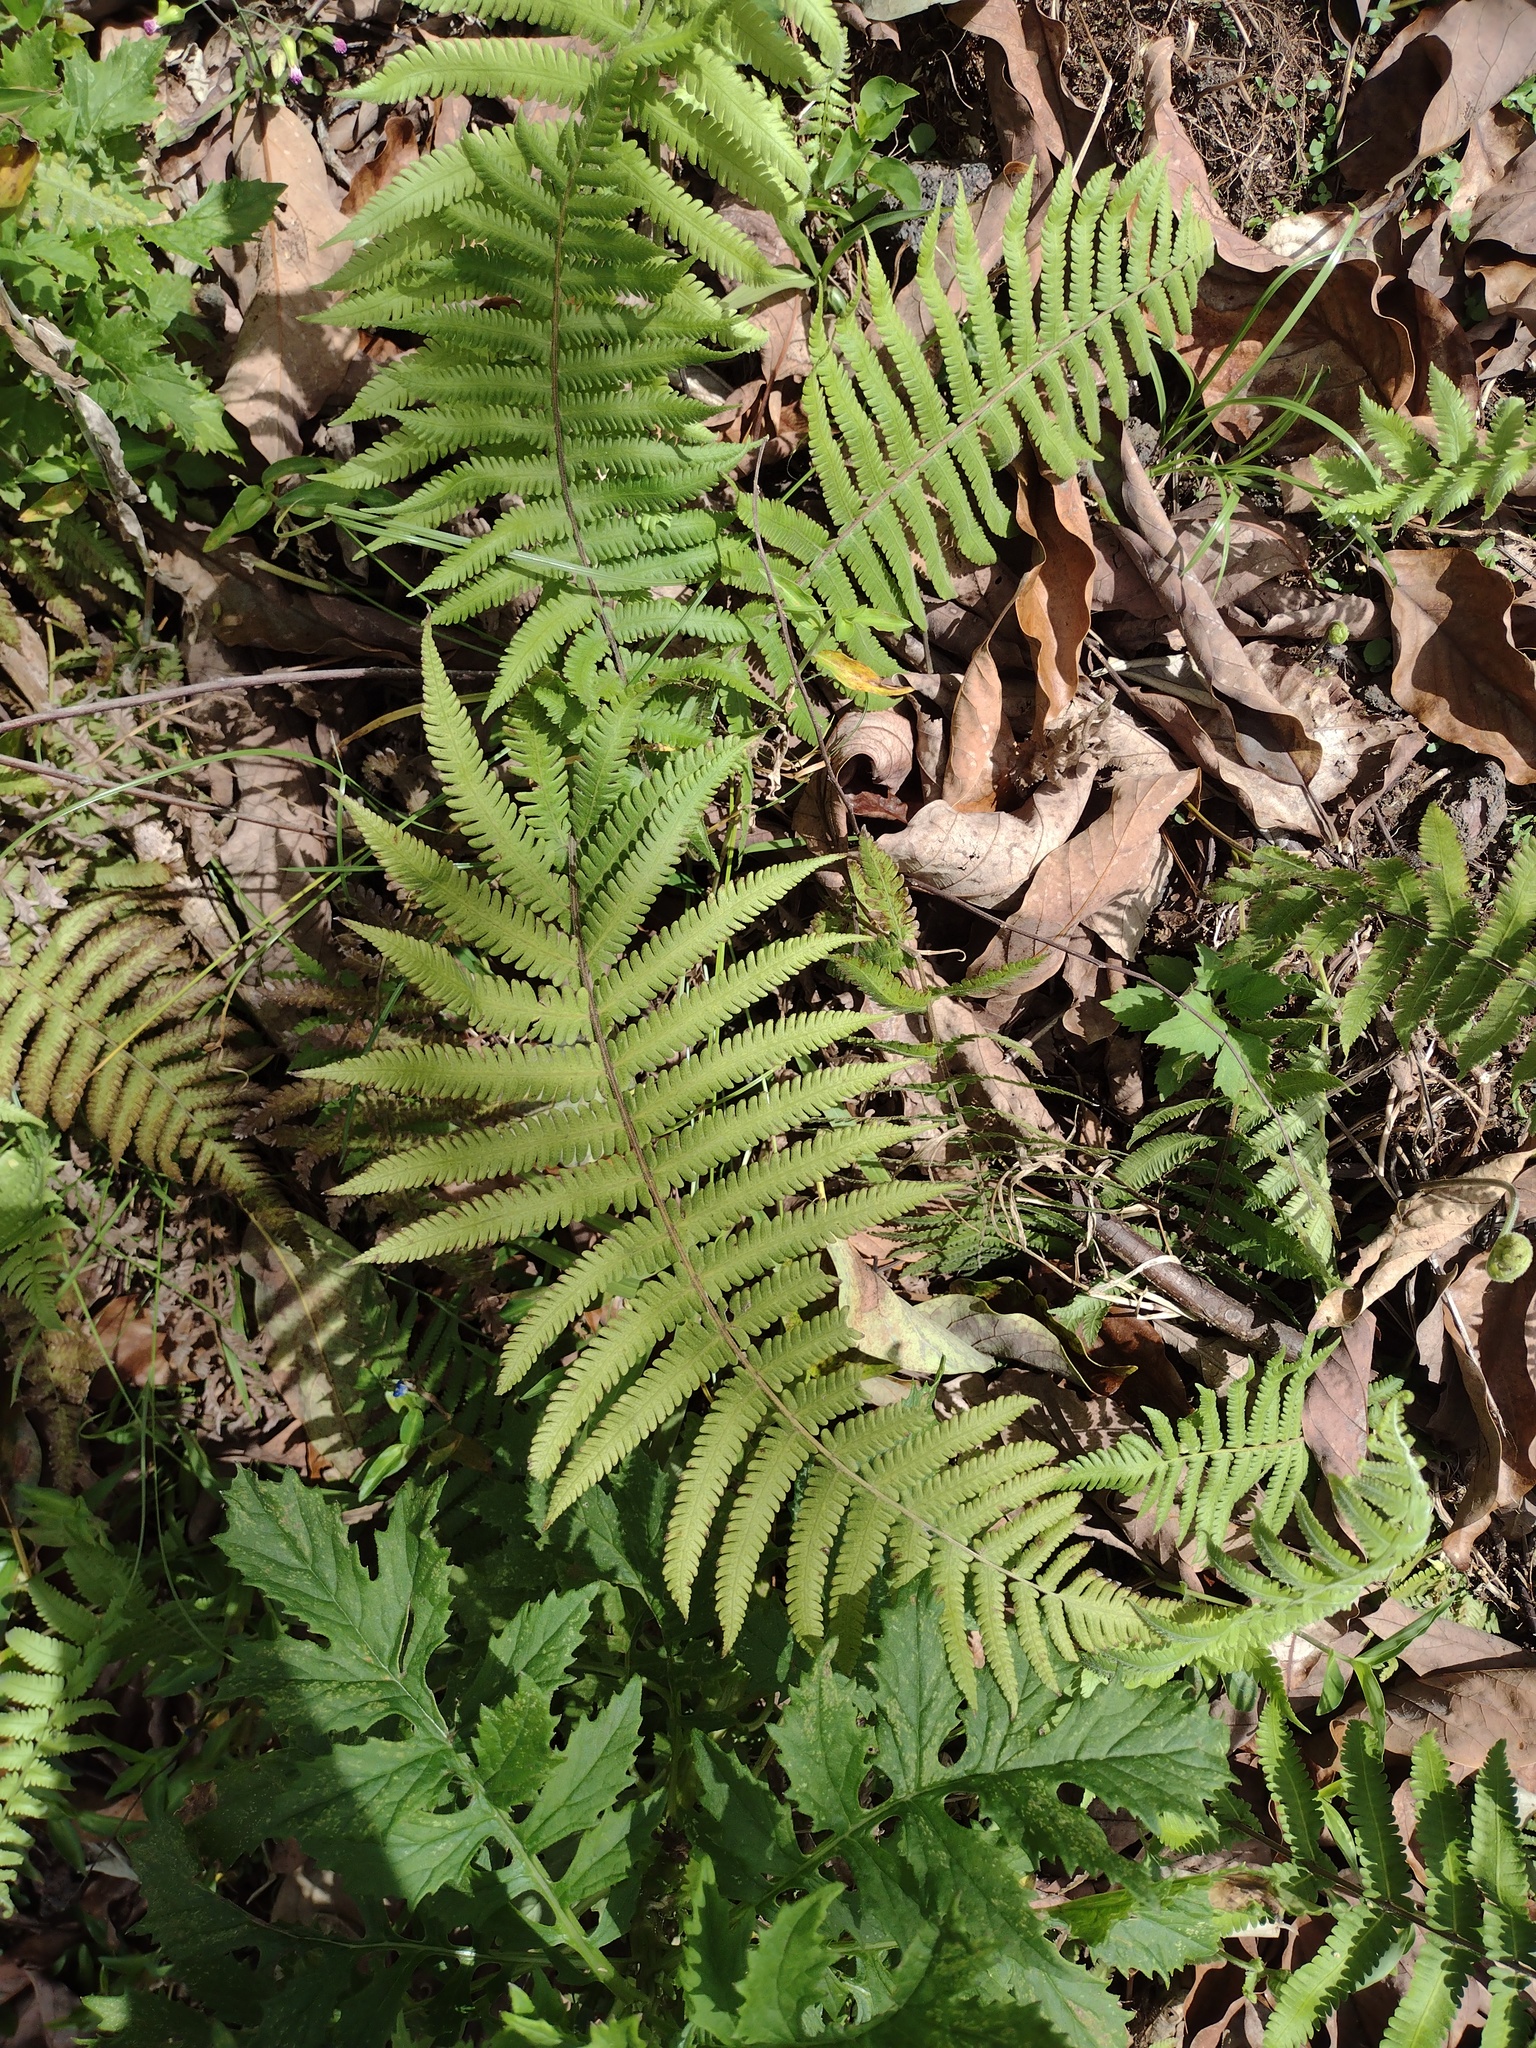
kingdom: Plantae
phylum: Tracheophyta
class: Polypodiopsida
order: Polypodiales
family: Thelypteridaceae
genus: Christella
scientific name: Christella parasitica
